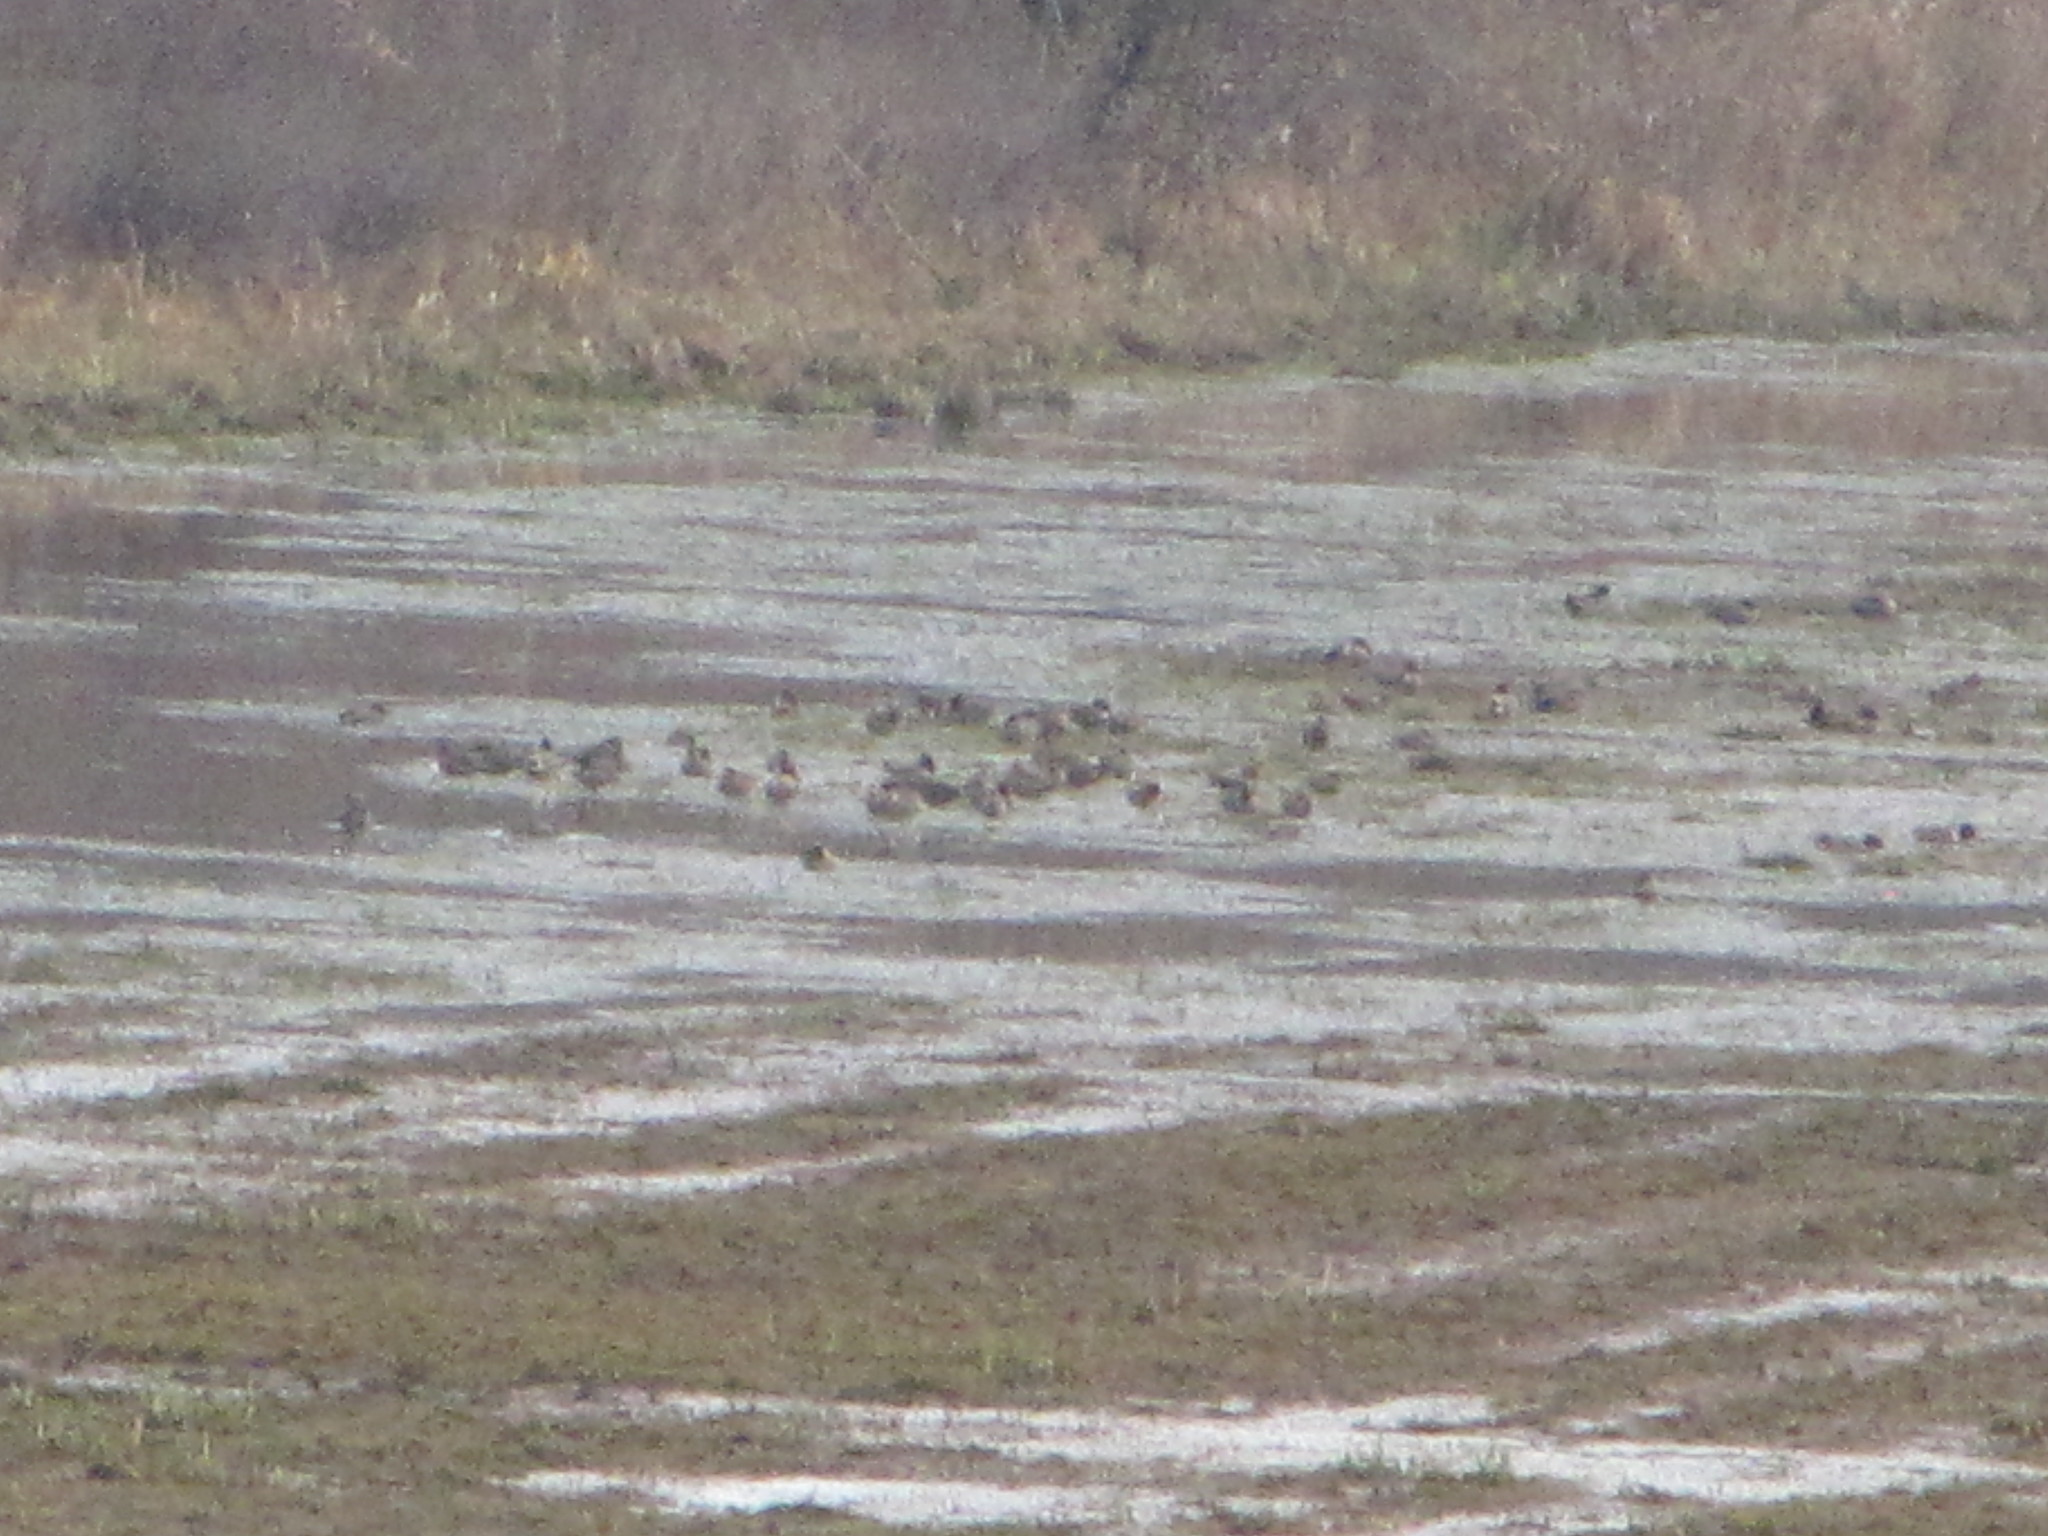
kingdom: Animalia
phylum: Chordata
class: Aves
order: Anseriformes
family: Anatidae
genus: Anas
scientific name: Anas carolinensis
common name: Green-winged teal
